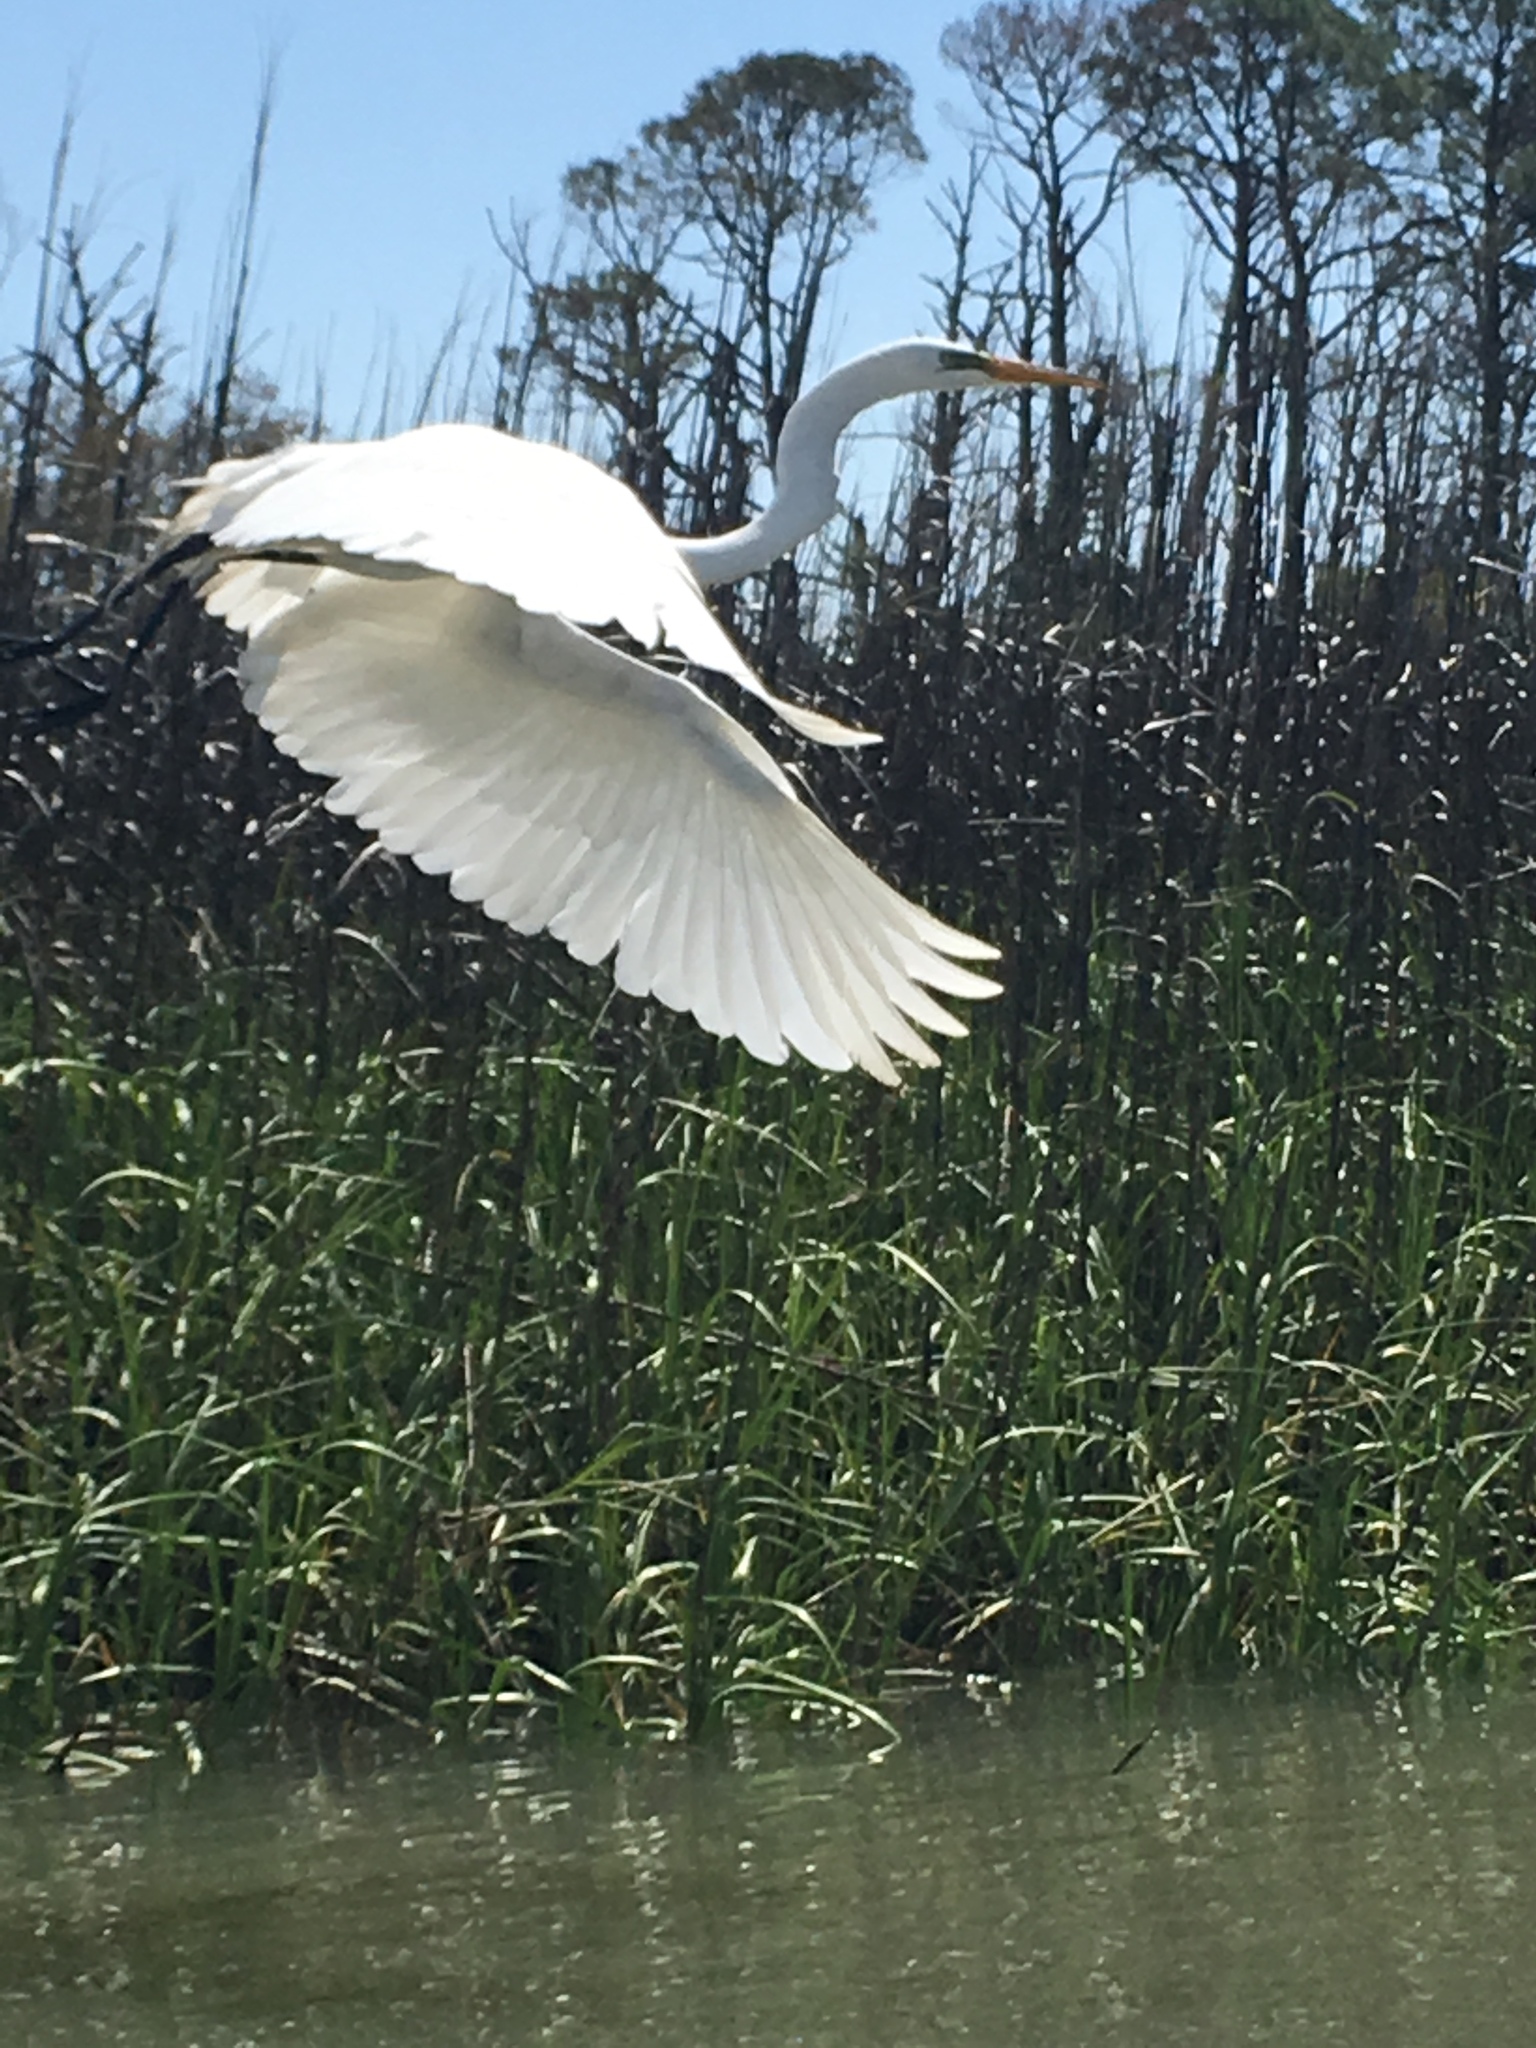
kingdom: Animalia
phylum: Chordata
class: Aves
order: Pelecaniformes
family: Ardeidae
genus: Ardea
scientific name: Ardea alba
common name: Great egret
